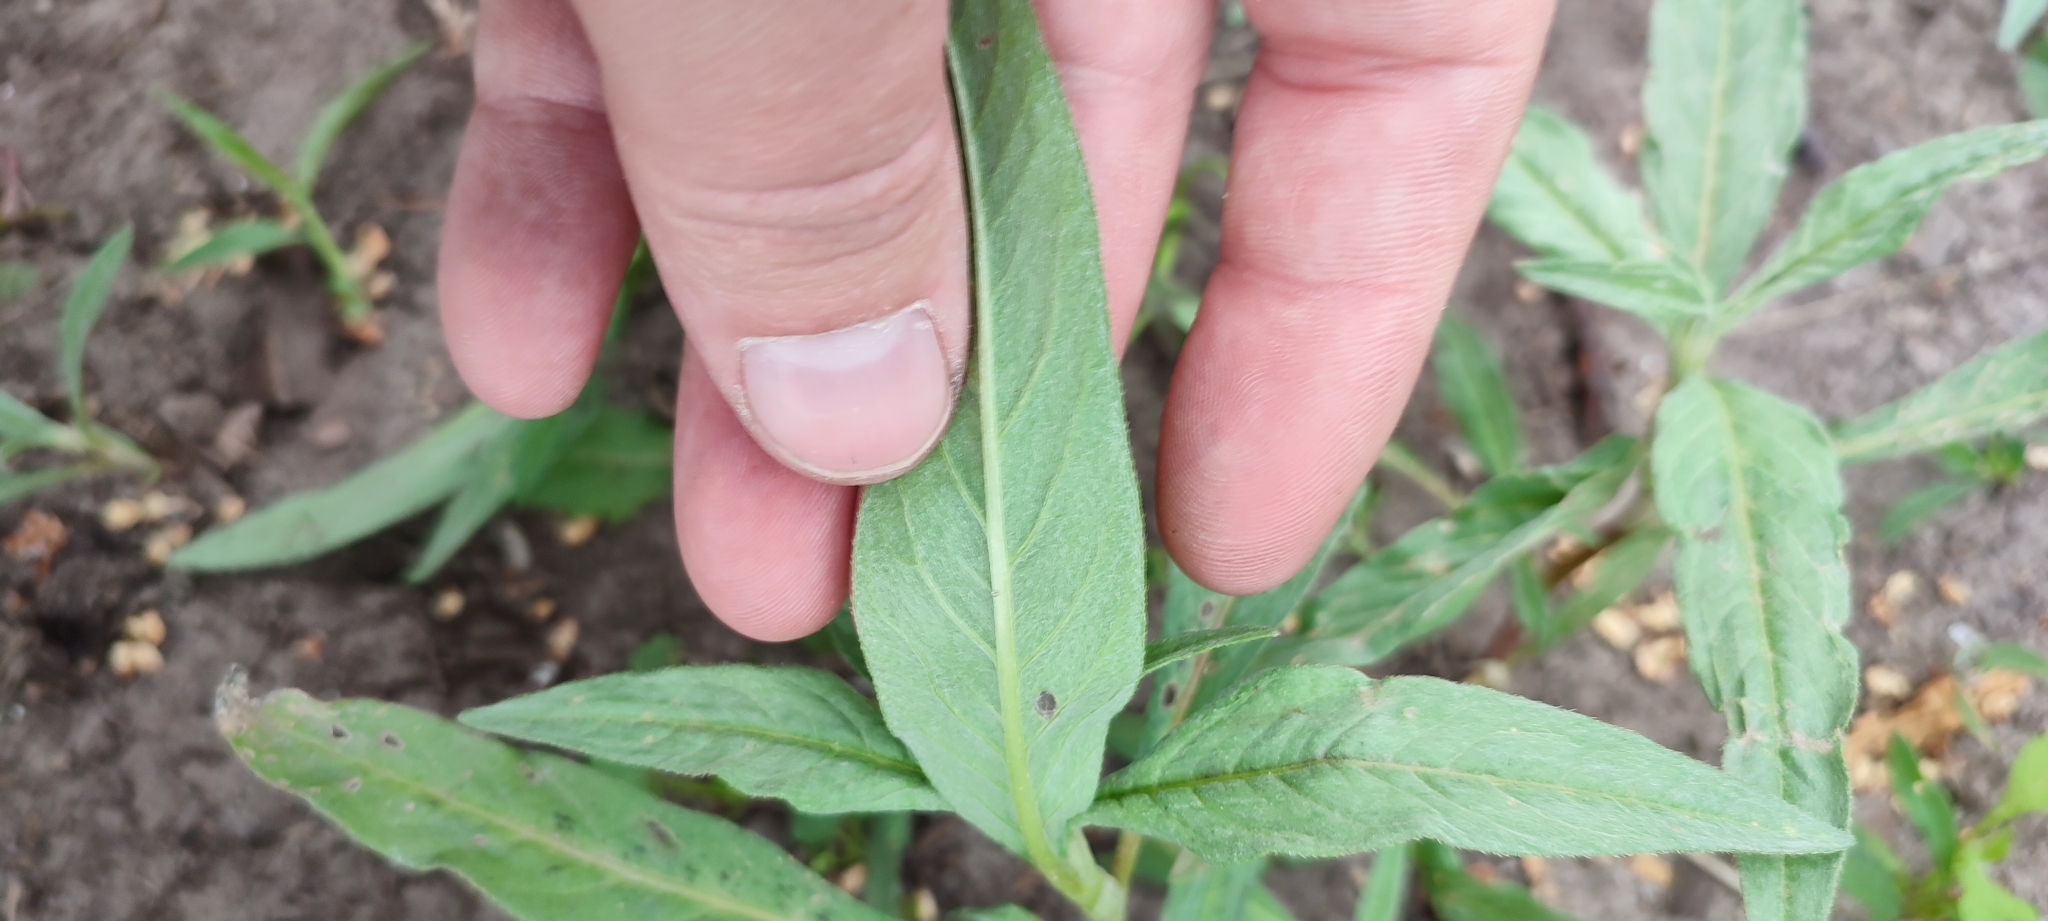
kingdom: Plantae
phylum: Tracheophyta
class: Magnoliopsida
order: Caryophyllales
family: Polygonaceae
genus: Persicaria
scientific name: Persicaria lapathifolia
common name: Curlytop knotweed
